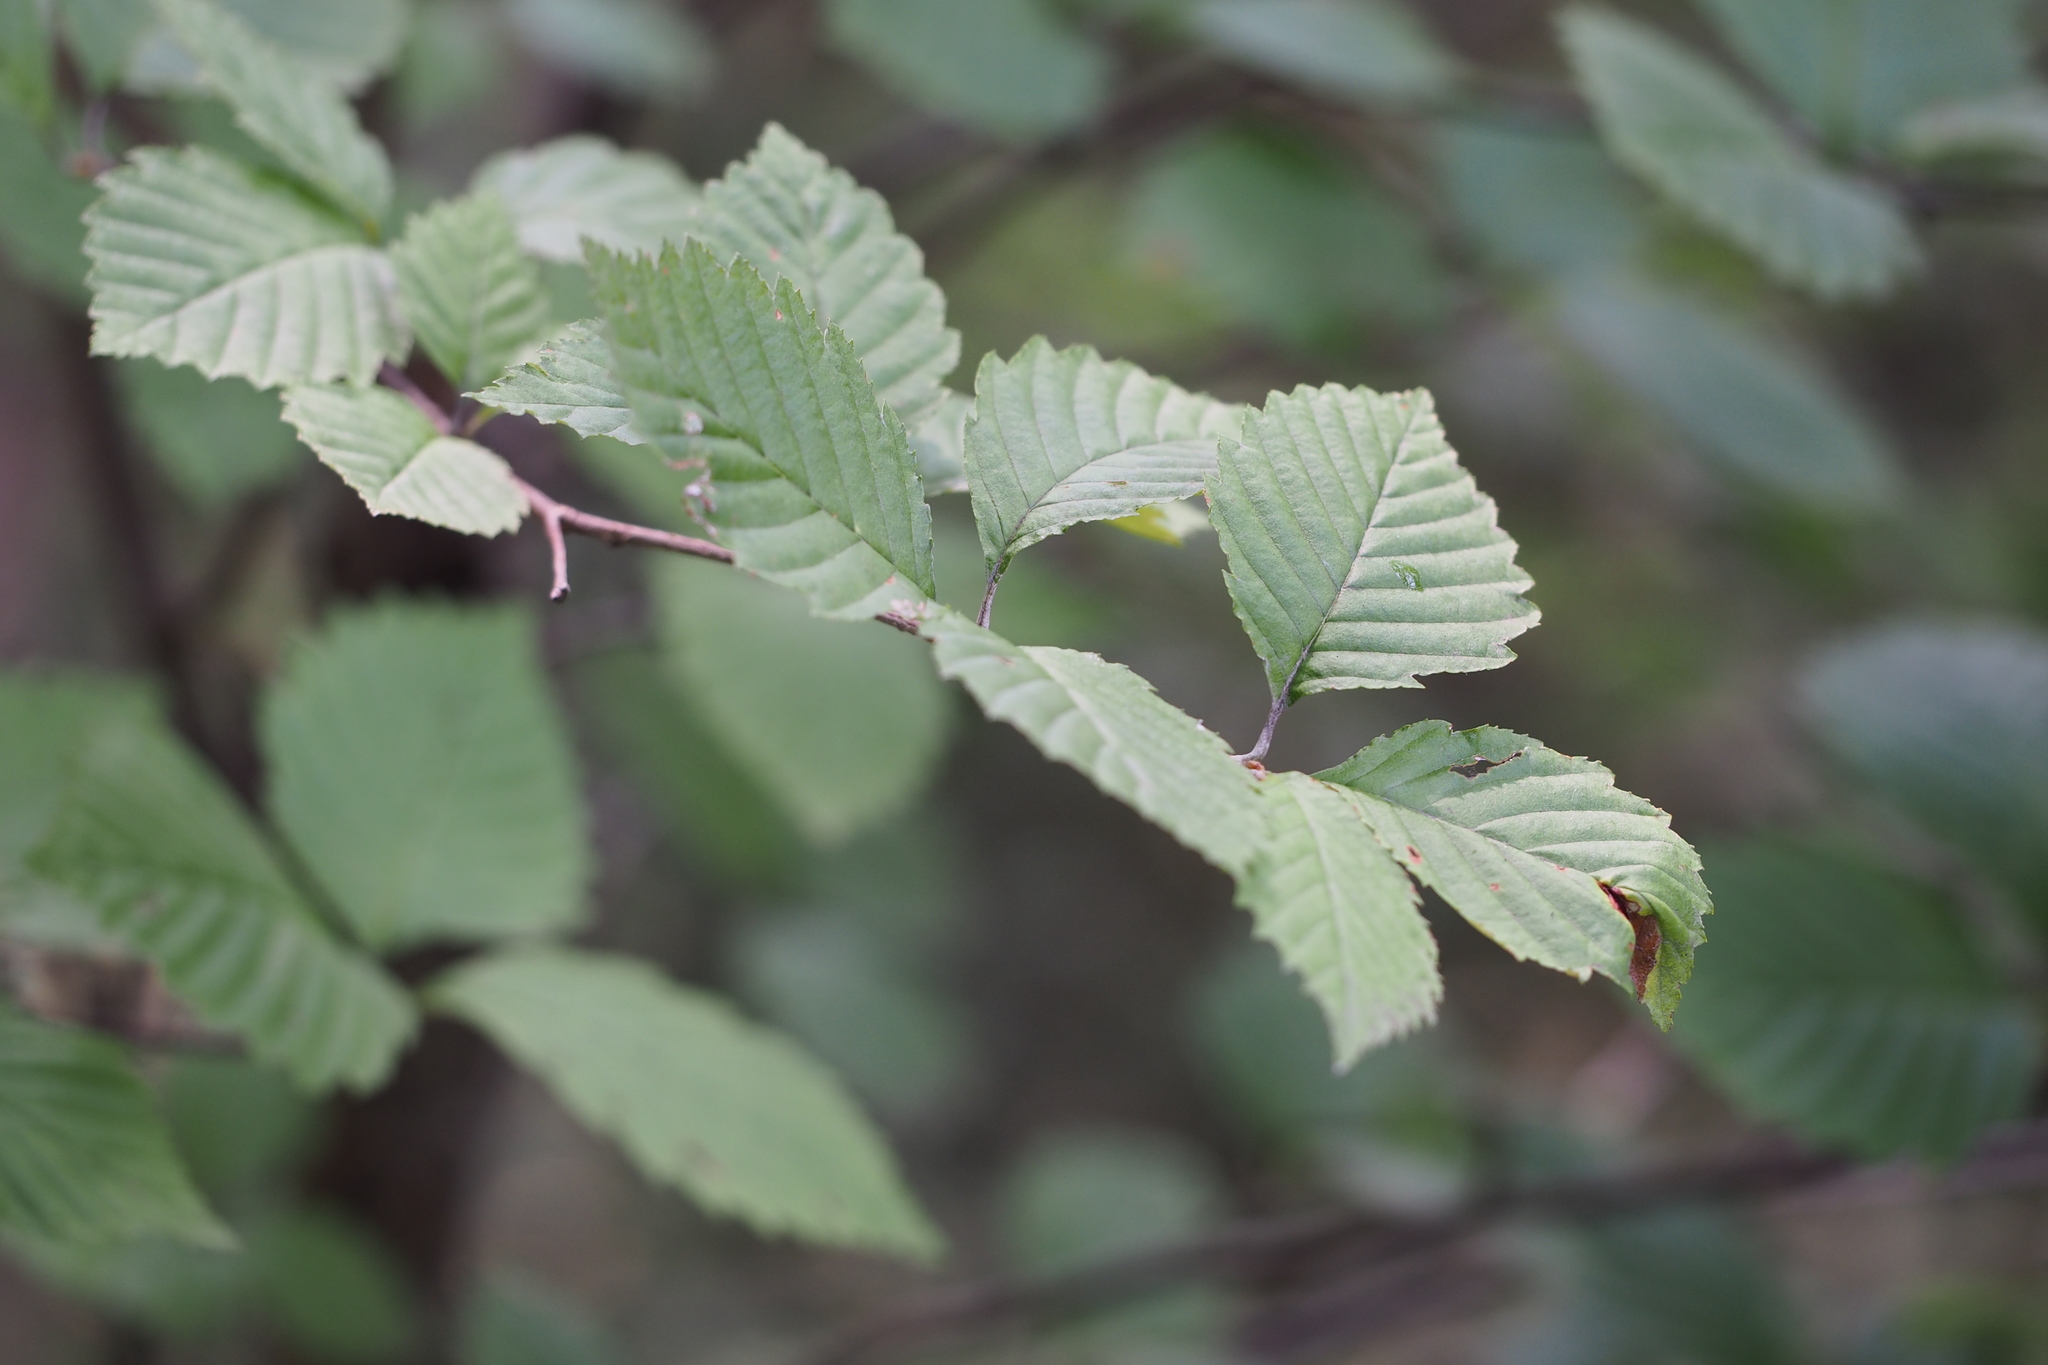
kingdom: Plantae
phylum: Tracheophyta
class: Magnoliopsida
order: Rosales
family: Rosaceae
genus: Sorbus
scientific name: Sorbus japonica
